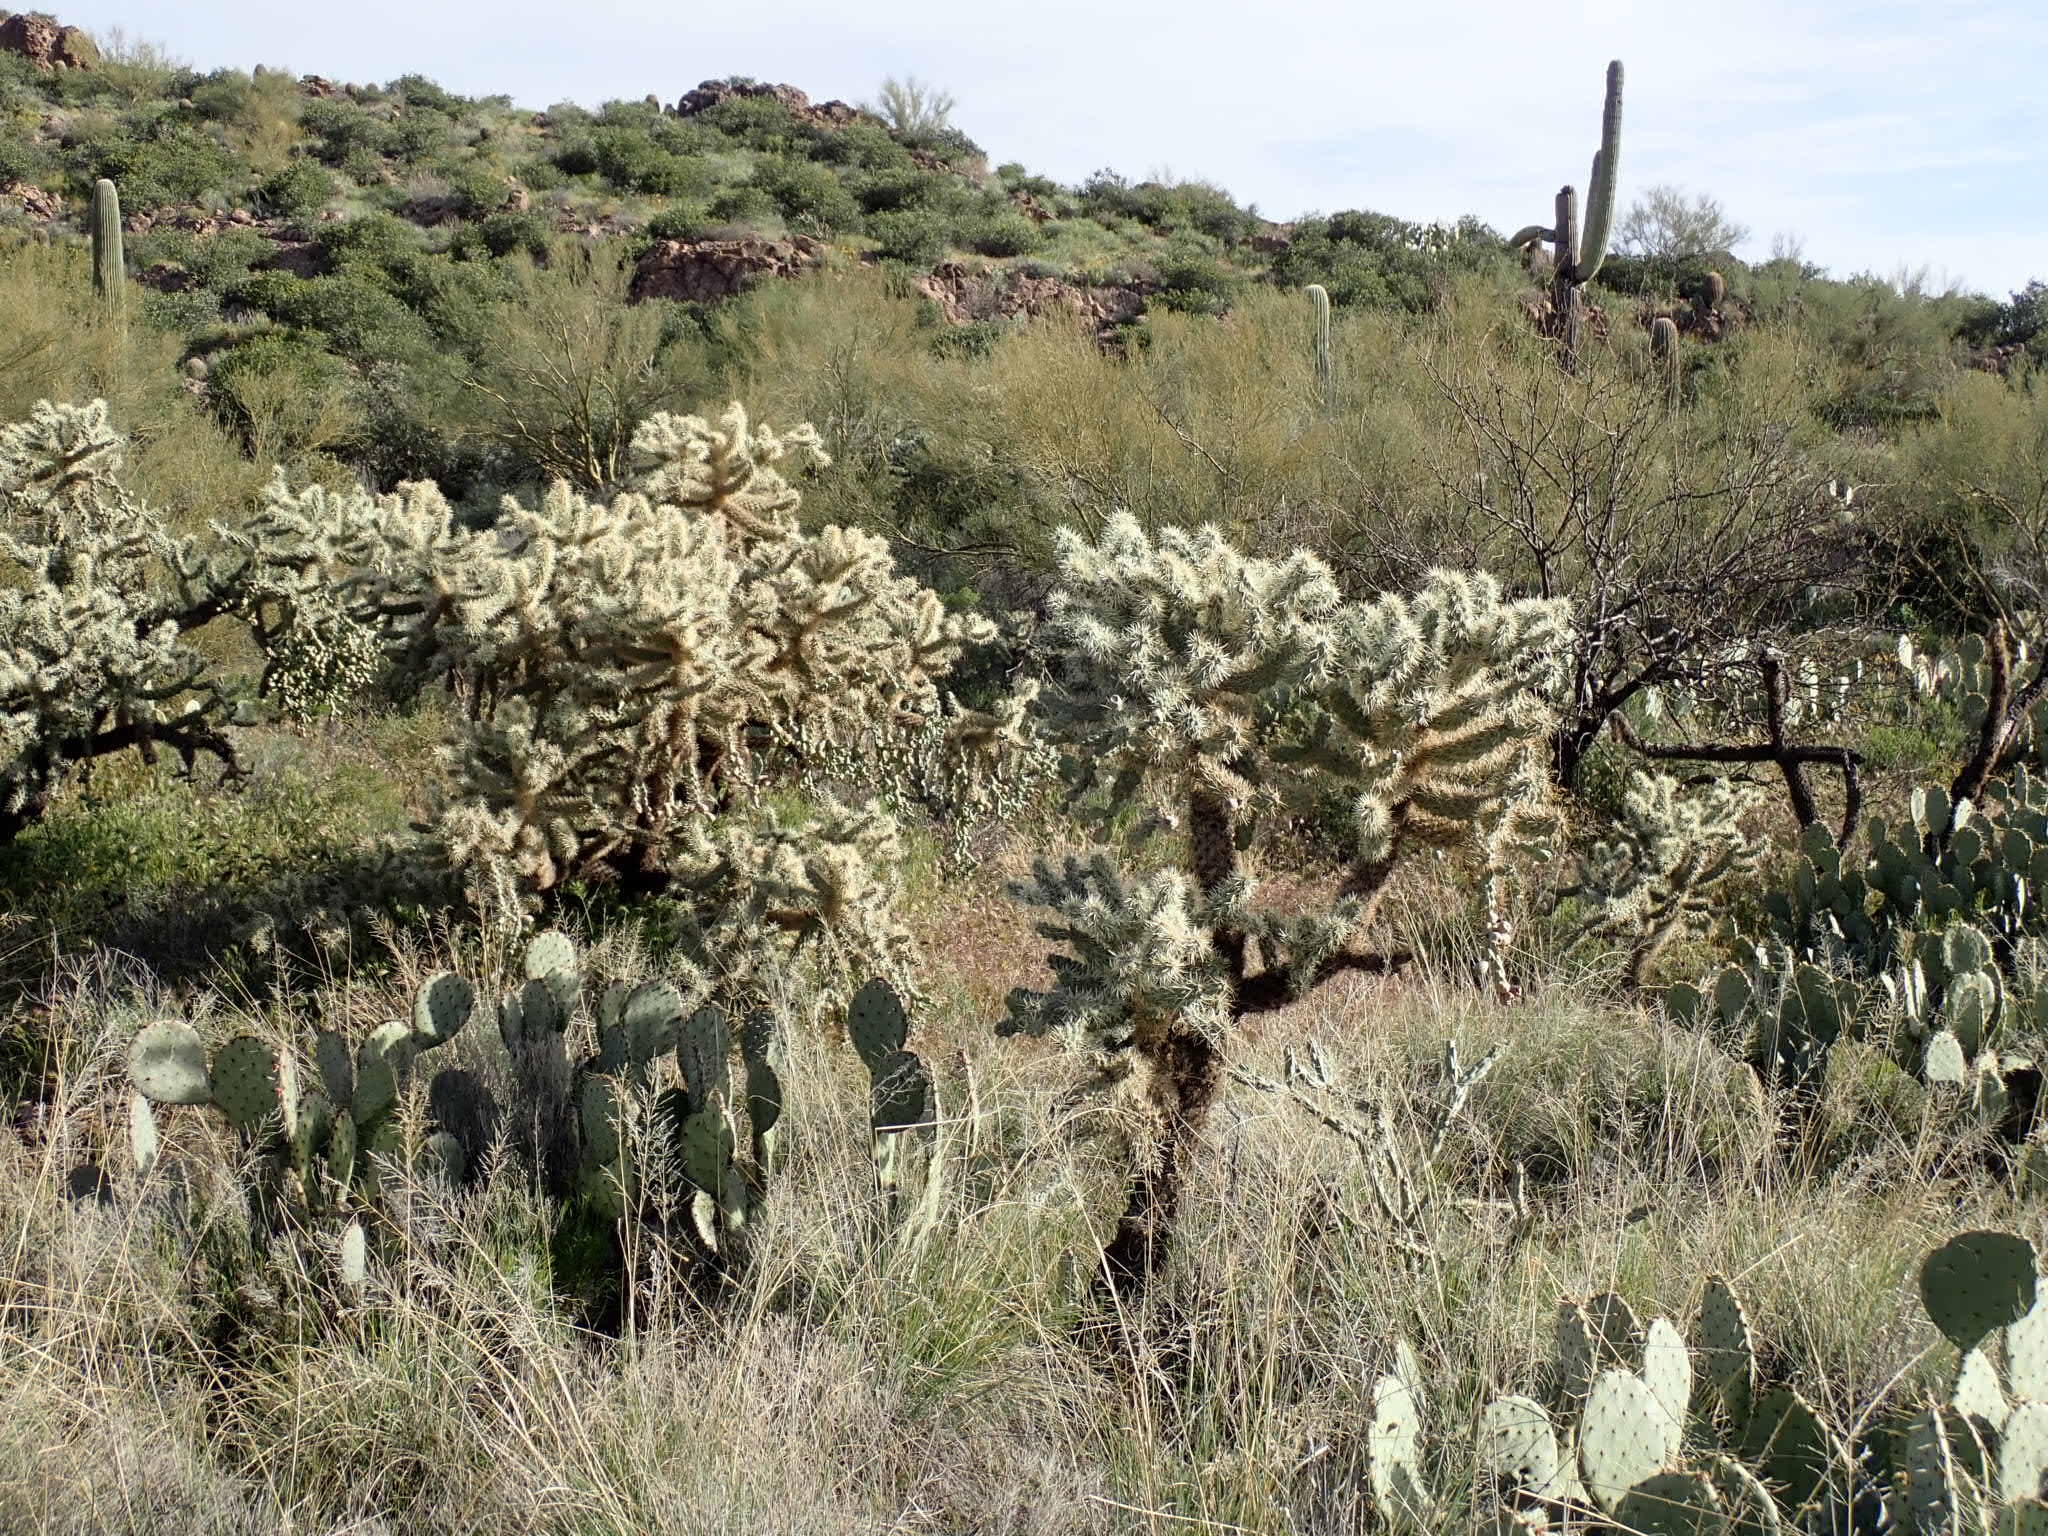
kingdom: Plantae
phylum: Tracheophyta
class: Magnoliopsida
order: Caryophyllales
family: Cactaceae
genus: Cylindropuntia
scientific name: Cylindropuntia fulgida
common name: Jumping cholla
